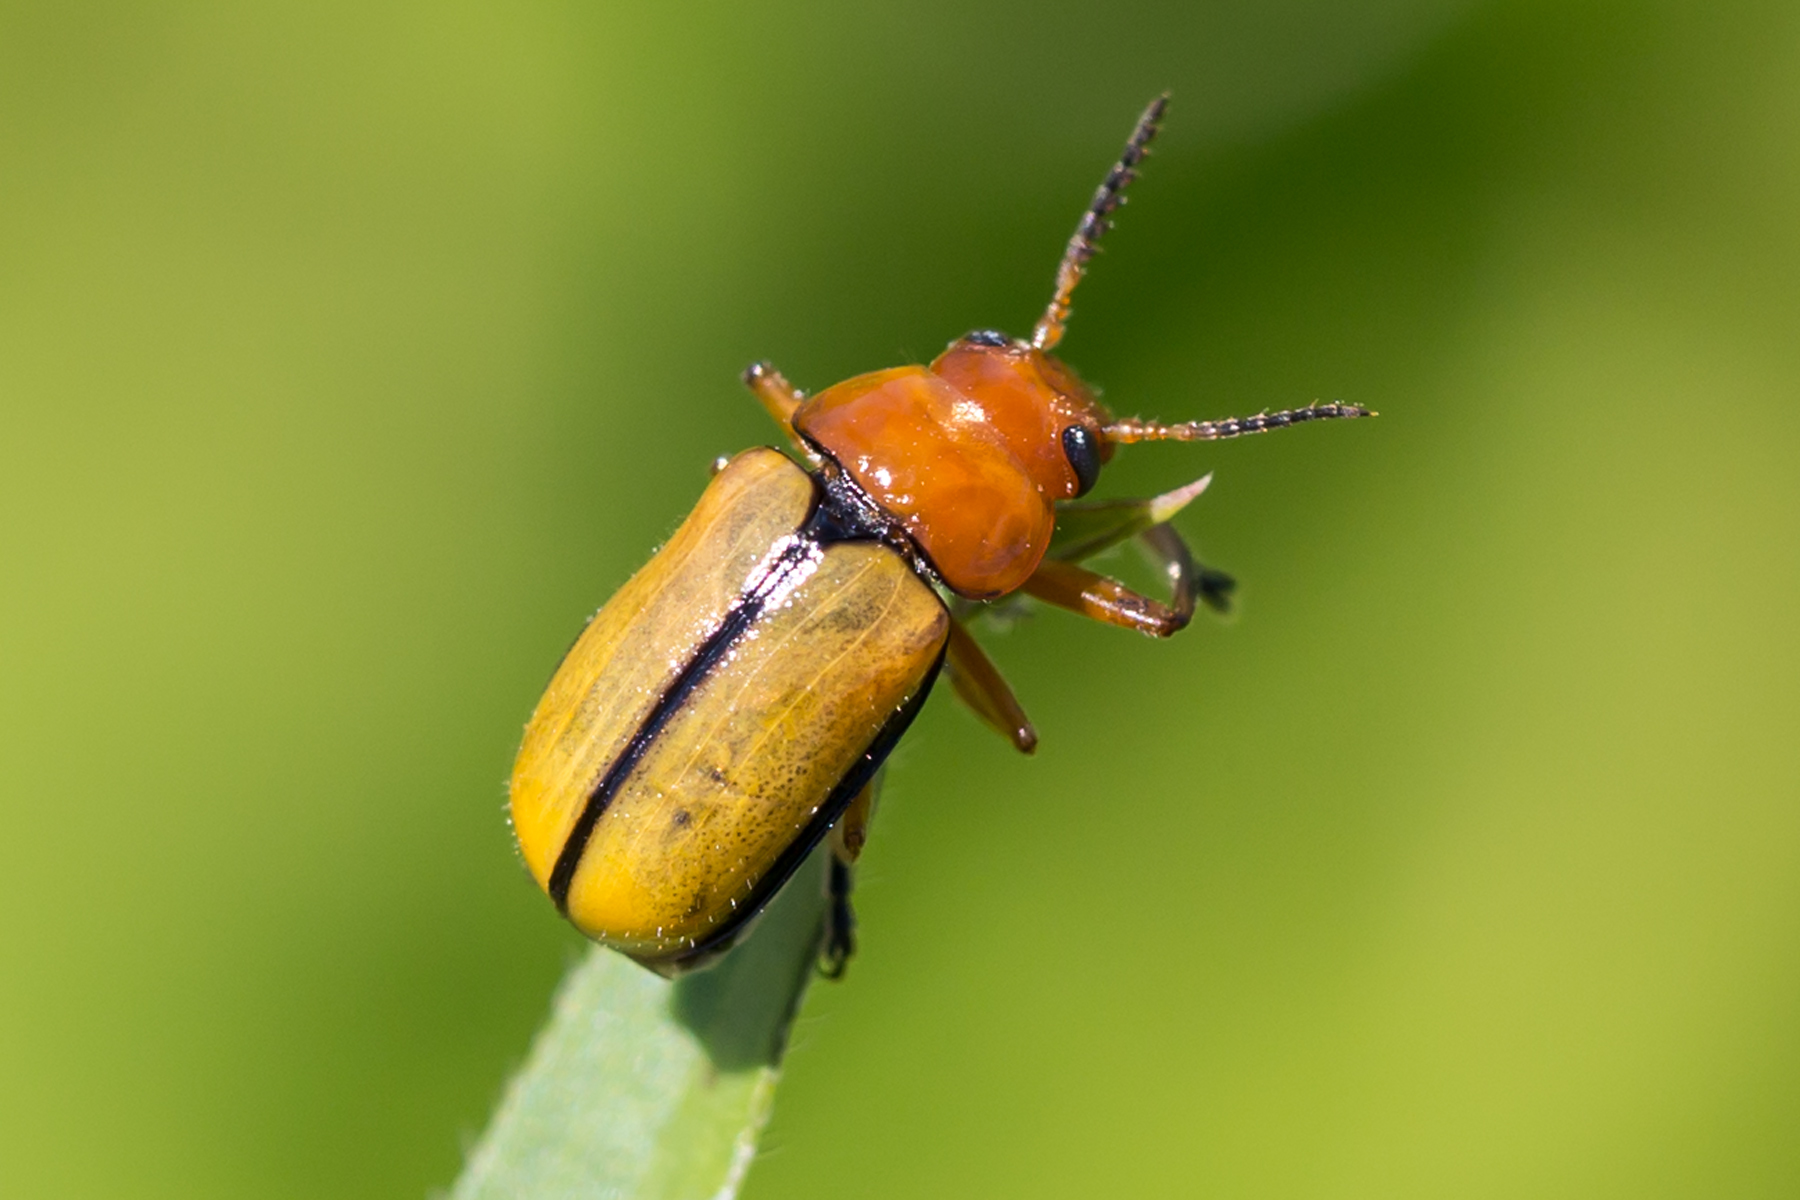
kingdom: Animalia
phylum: Arthropoda
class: Insecta
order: Coleoptera
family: Chrysomelidae
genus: Anomoea
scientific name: Anomoea laticlavia
